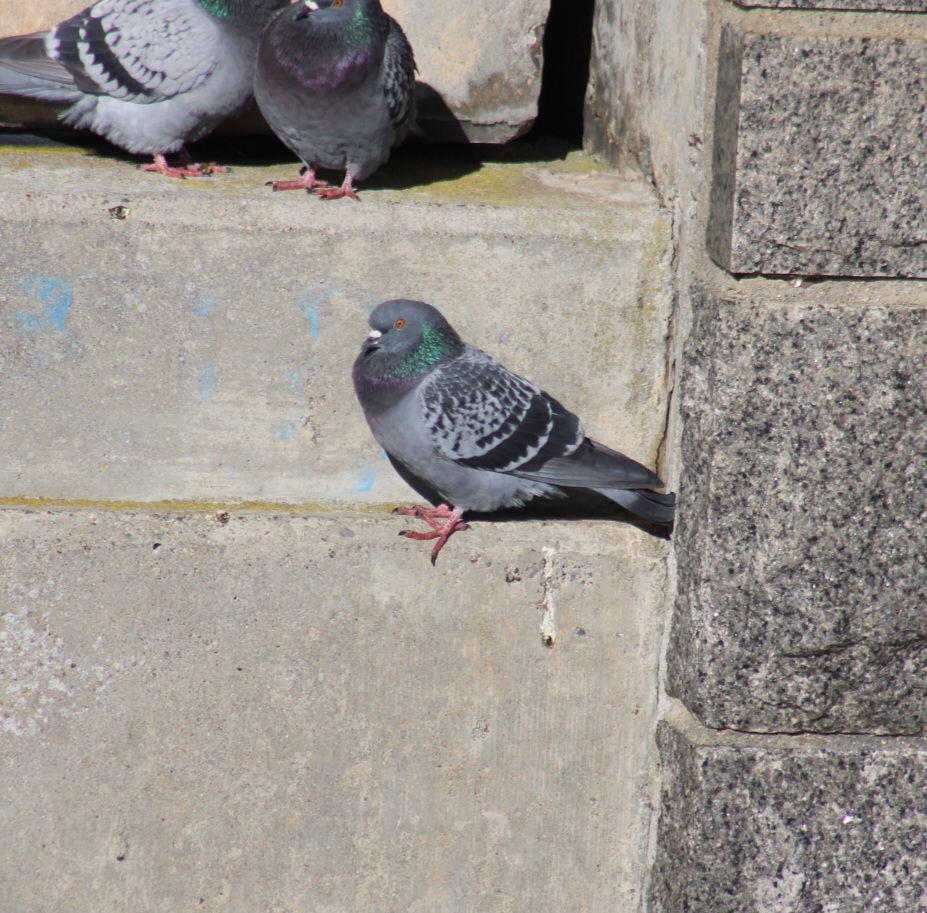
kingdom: Animalia
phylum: Chordata
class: Aves
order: Columbiformes
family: Columbidae
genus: Columba
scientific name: Columba livia
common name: Rock pigeon
